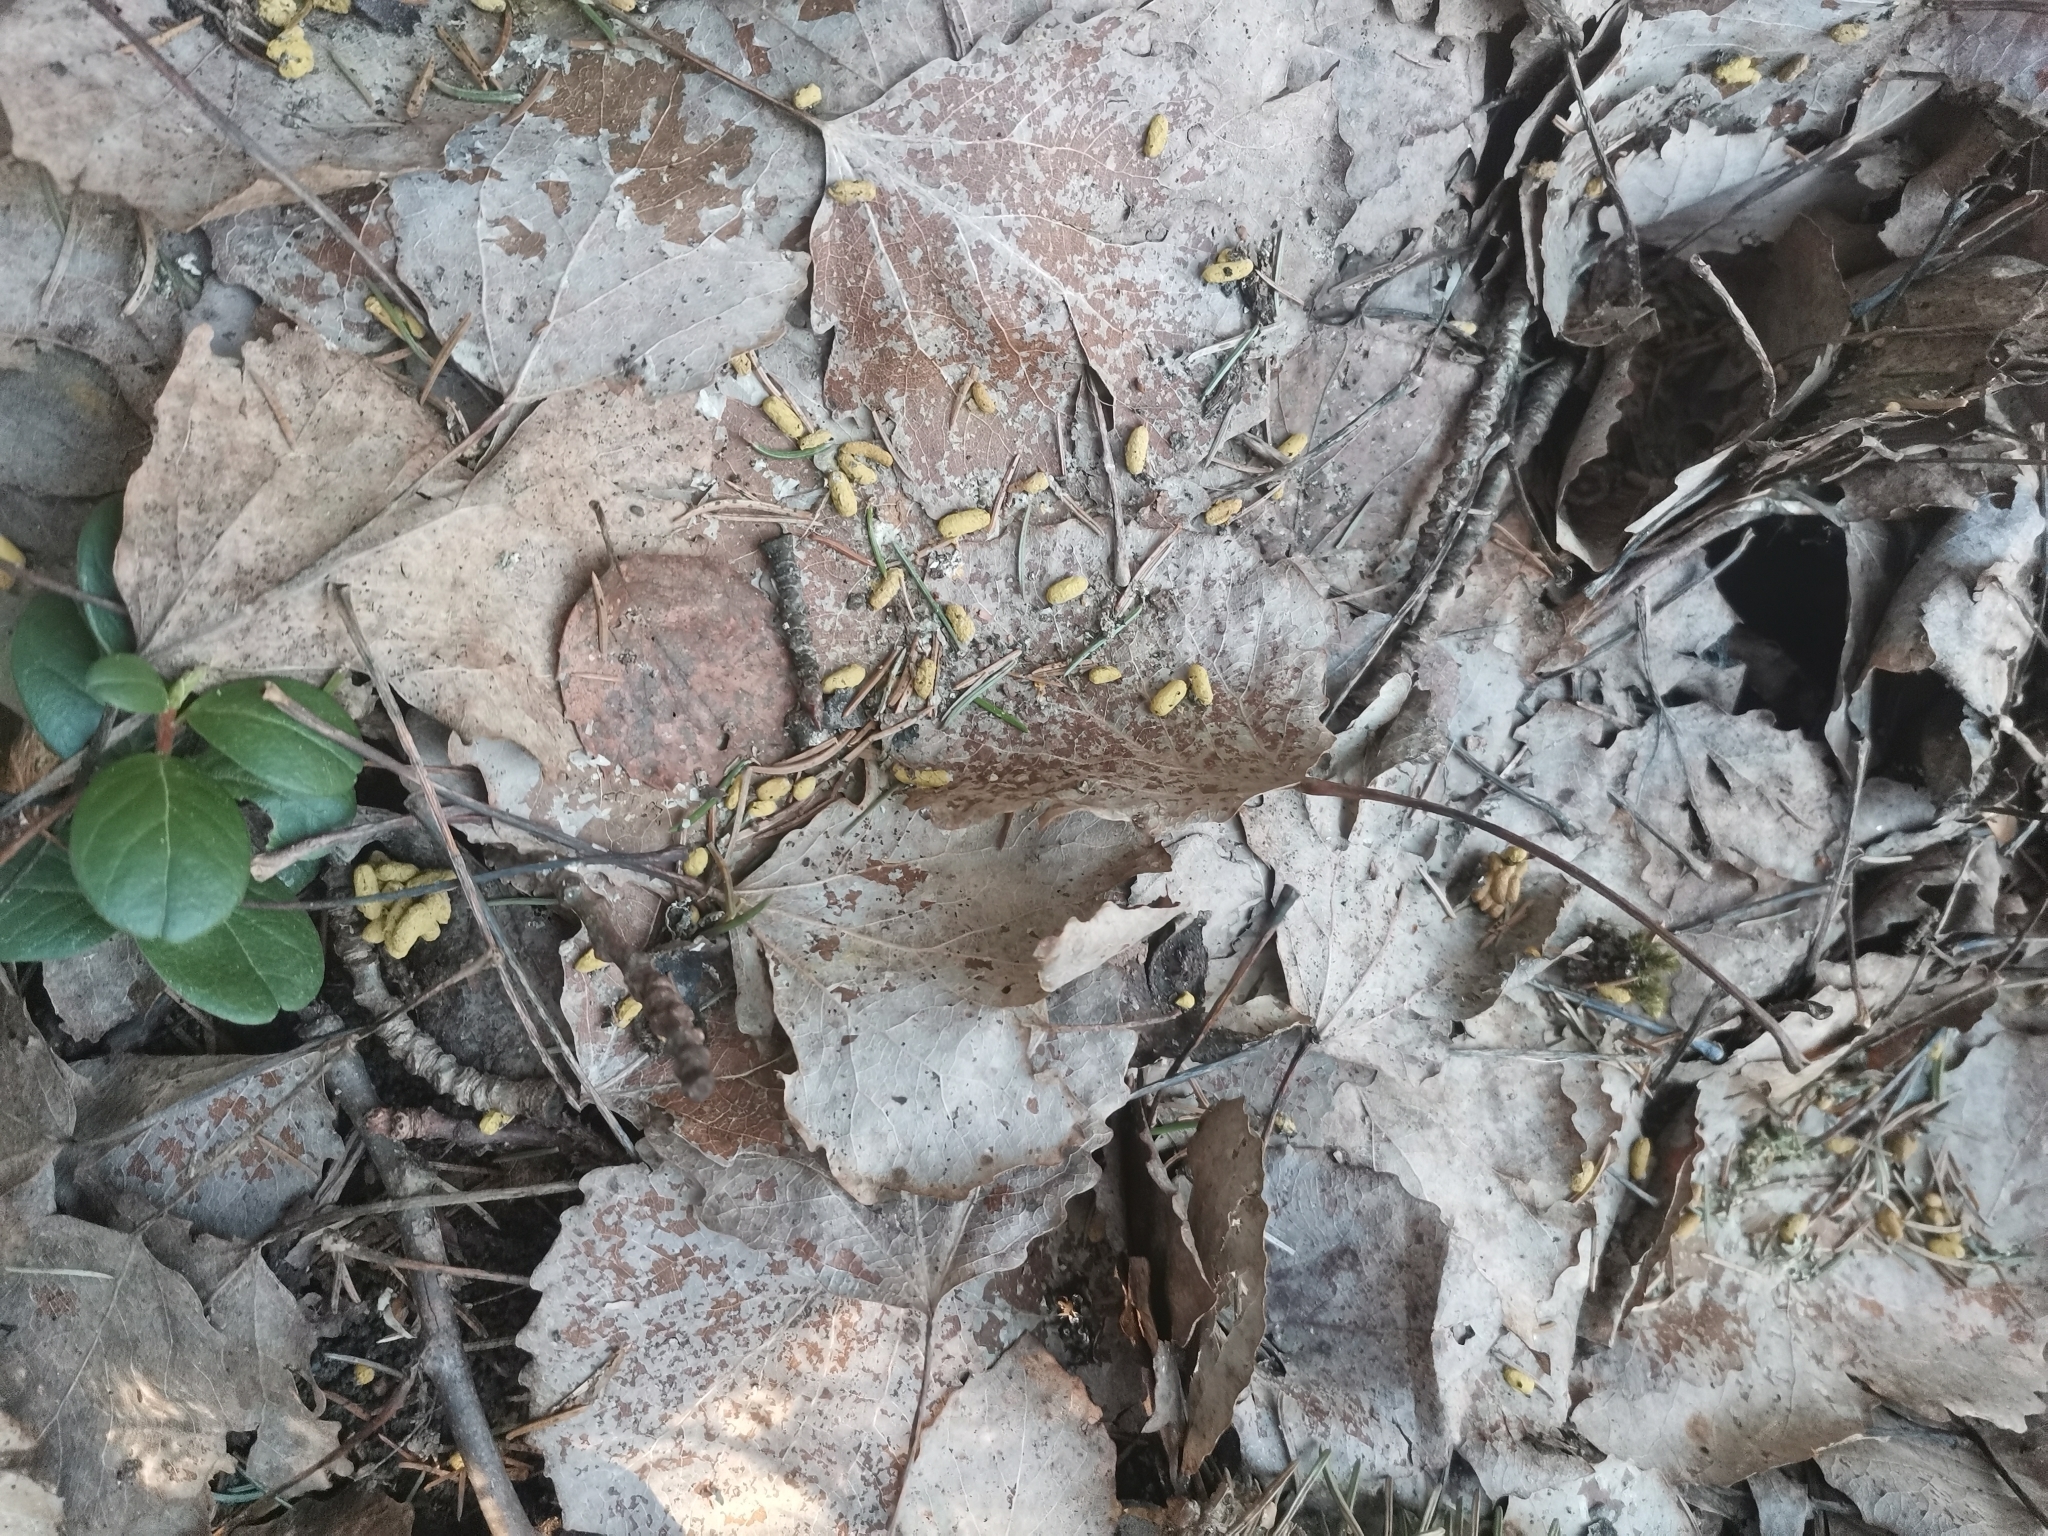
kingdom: Animalia
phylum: Chordata
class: Mammalia
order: Rodentia
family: Sciuridae
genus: Pteromys
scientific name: Pteromys volans
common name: Siberian flying squirrel
